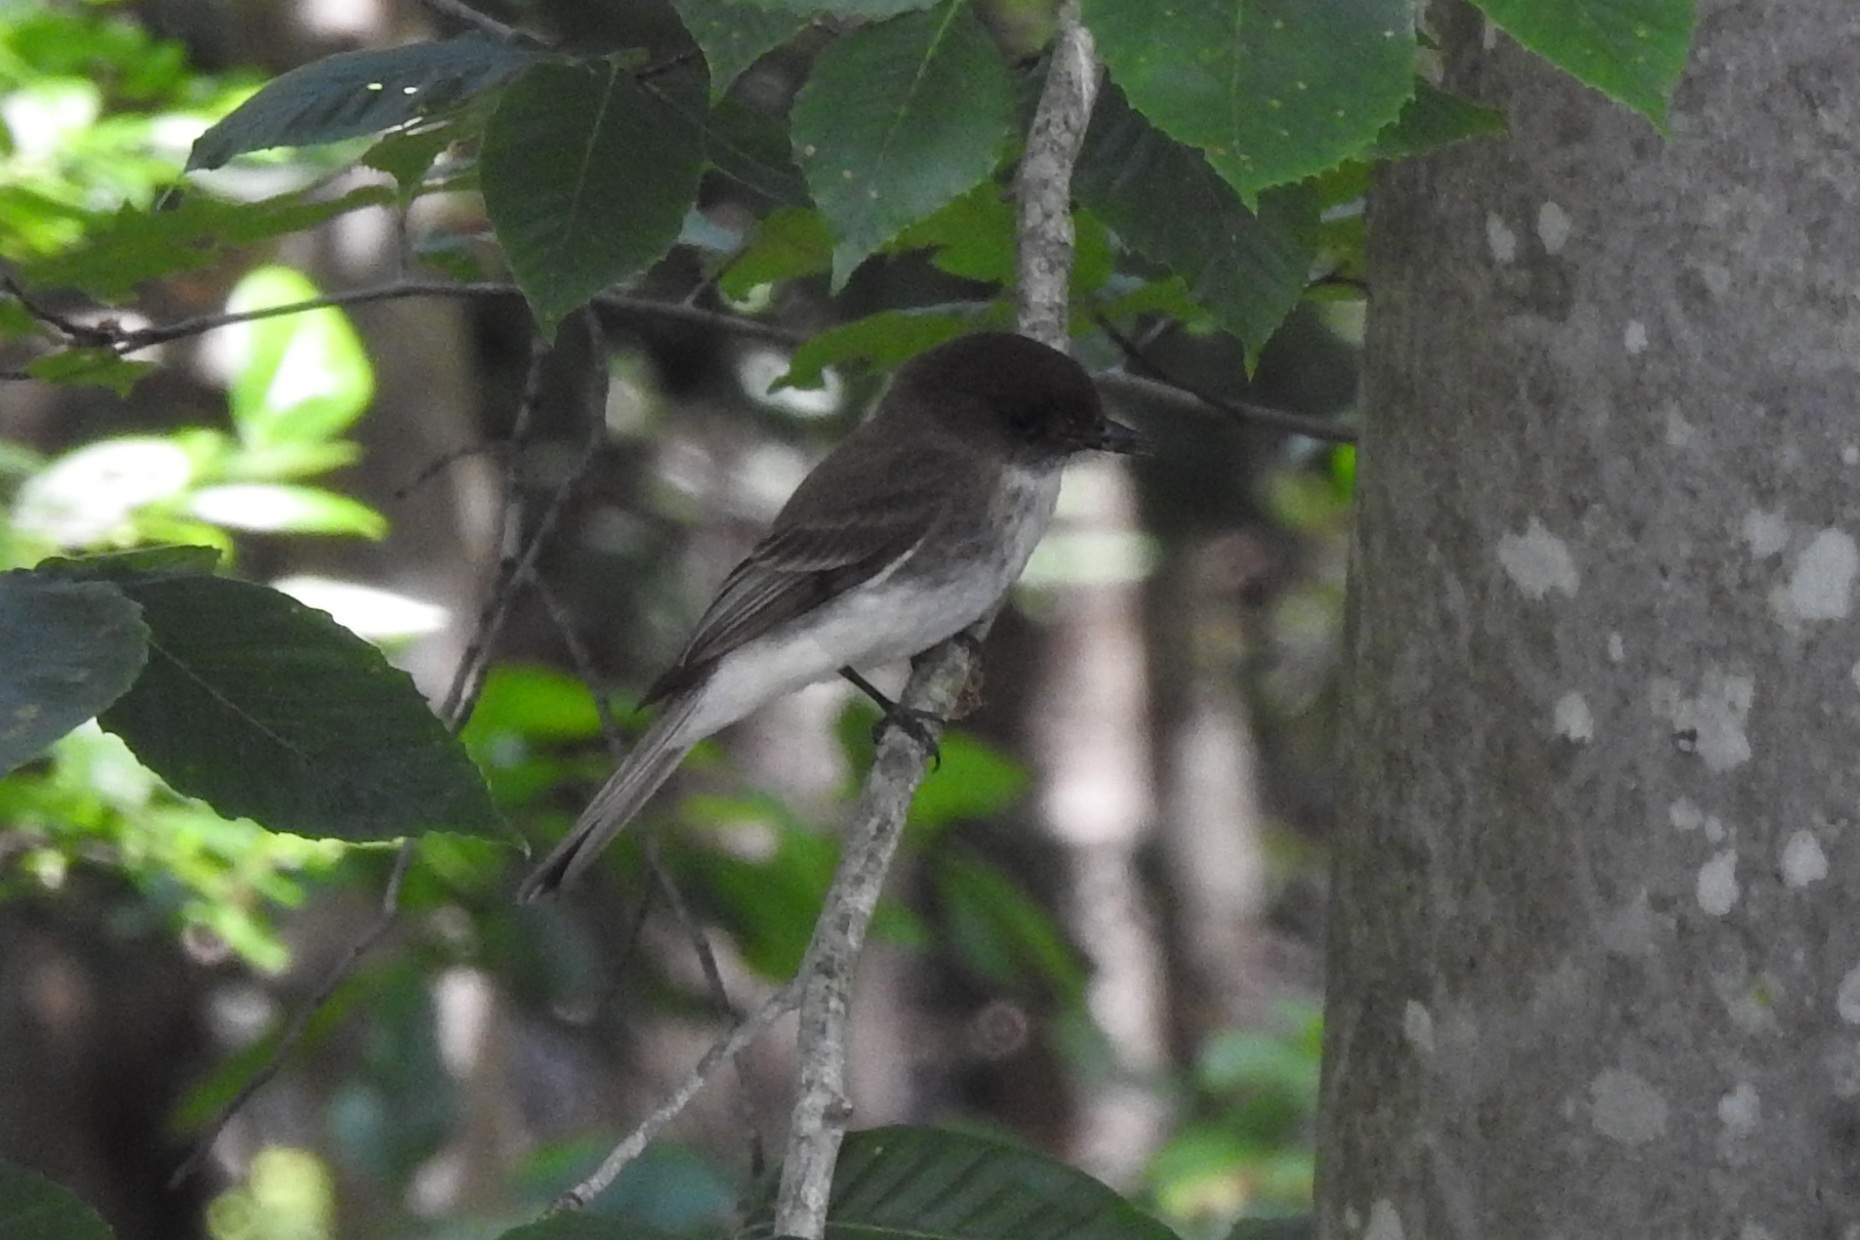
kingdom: Animalia
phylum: Chordata
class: Aves
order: Passeriformes
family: Tyrannidae
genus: Sayornis
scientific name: Sayornis phoebe
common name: Eastern phoebe
